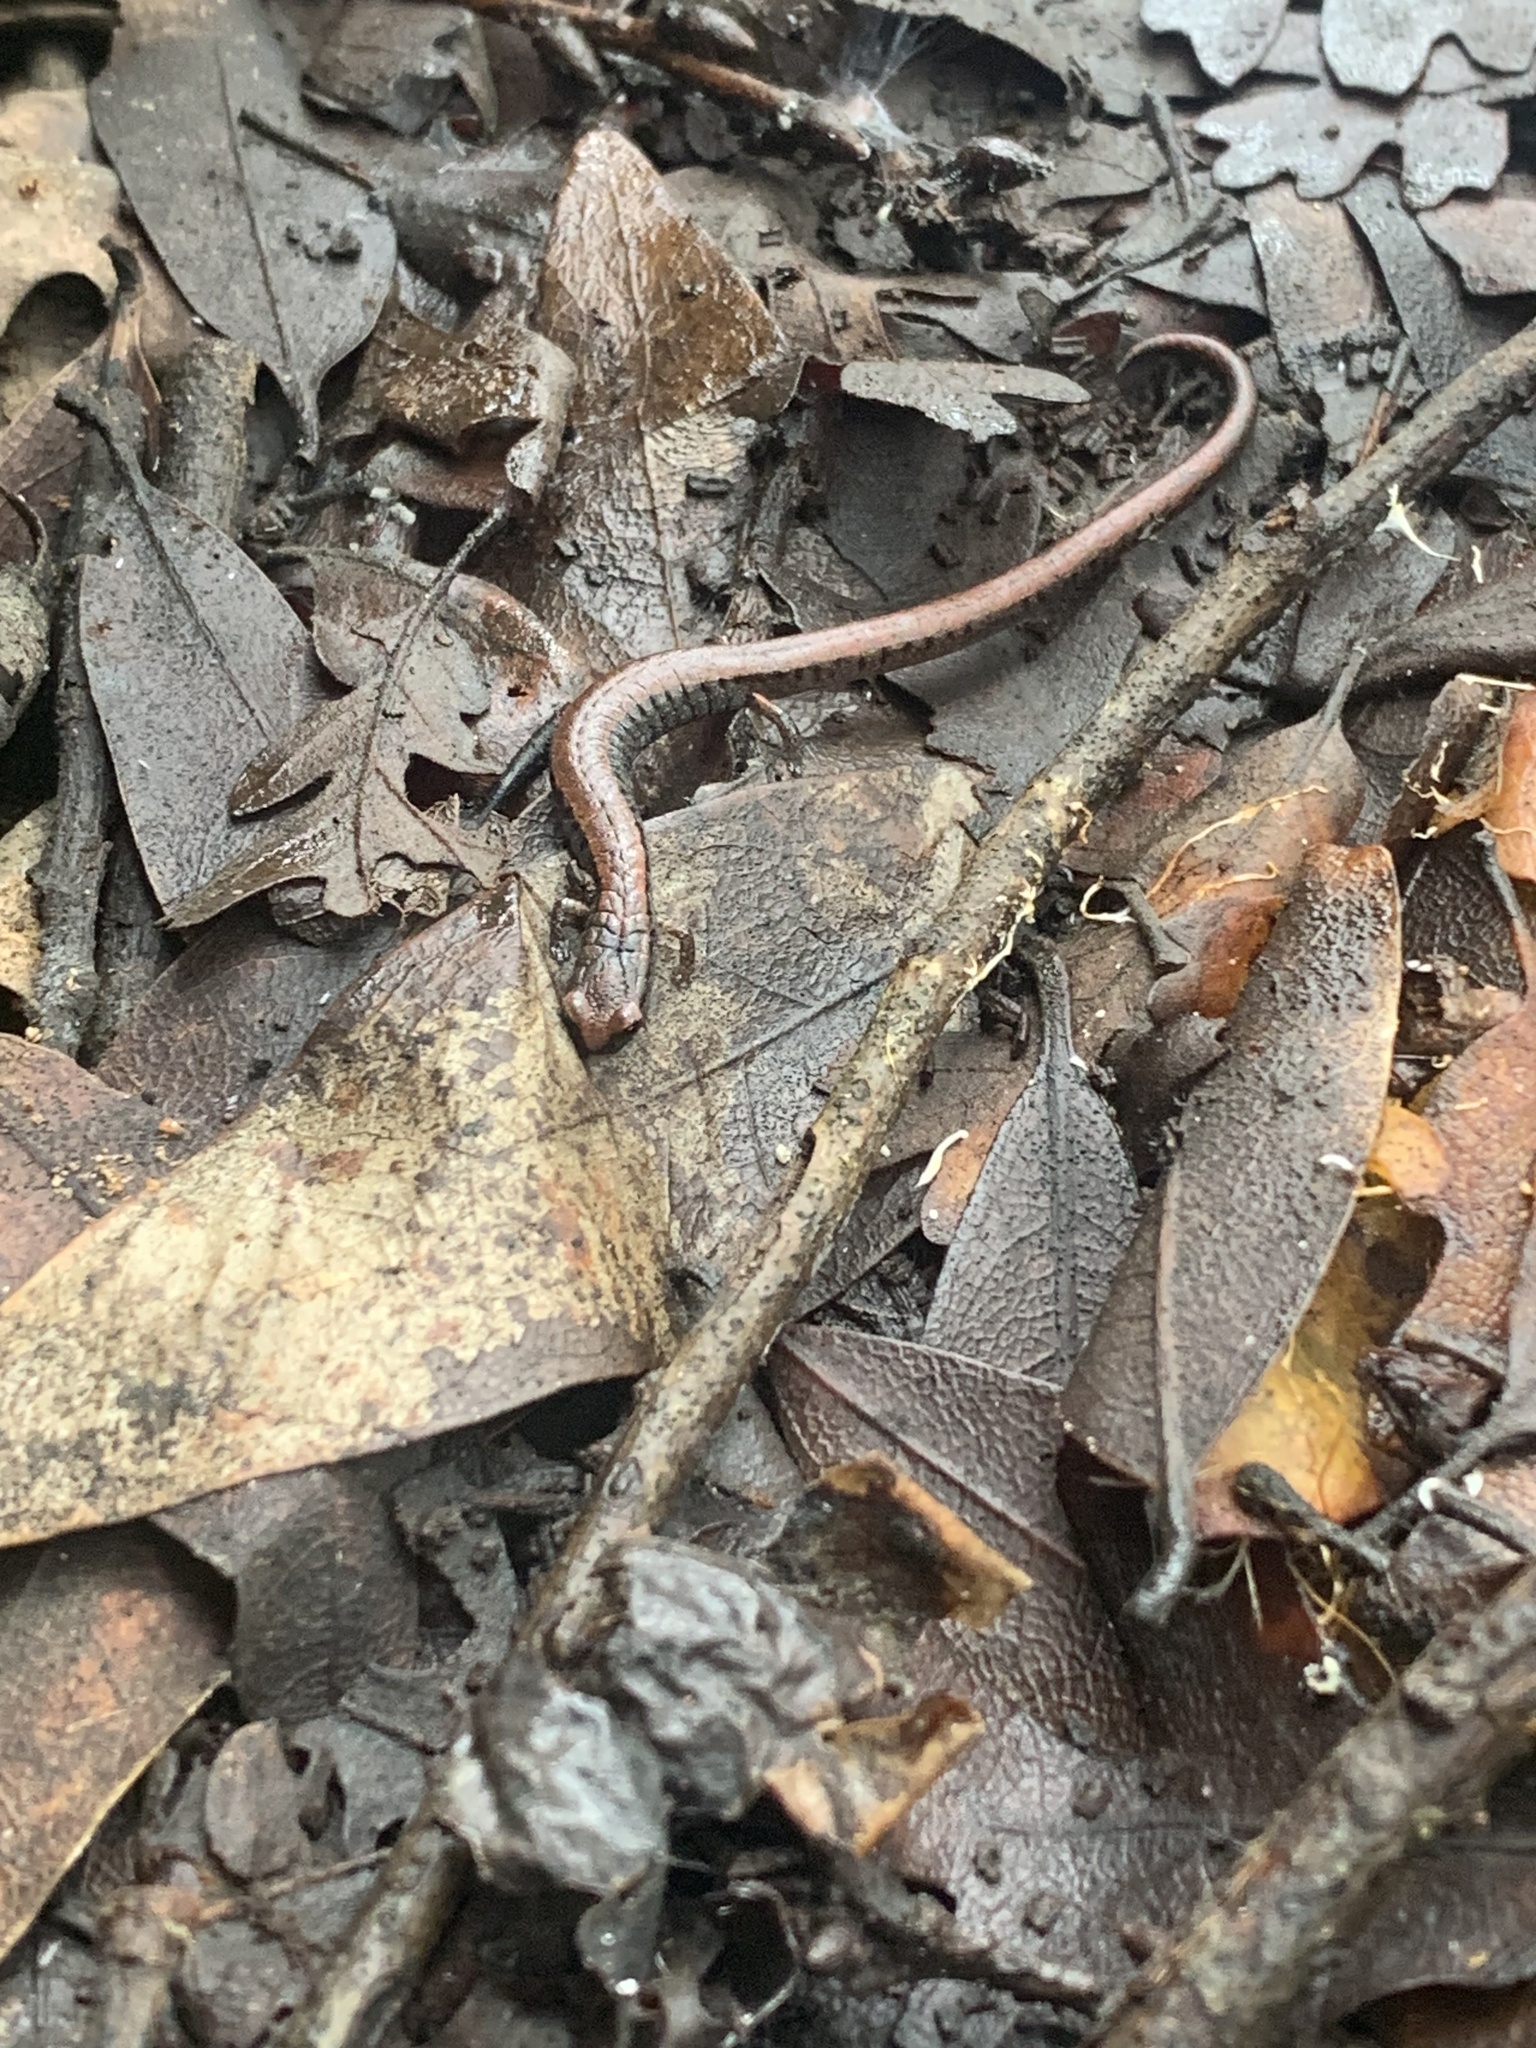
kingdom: Animalia
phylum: Chordata
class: Amphibia
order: Caudata
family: Plethodontidae
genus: Batrachoseps
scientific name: Batrachoseps attenuatus
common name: California slender salamander
